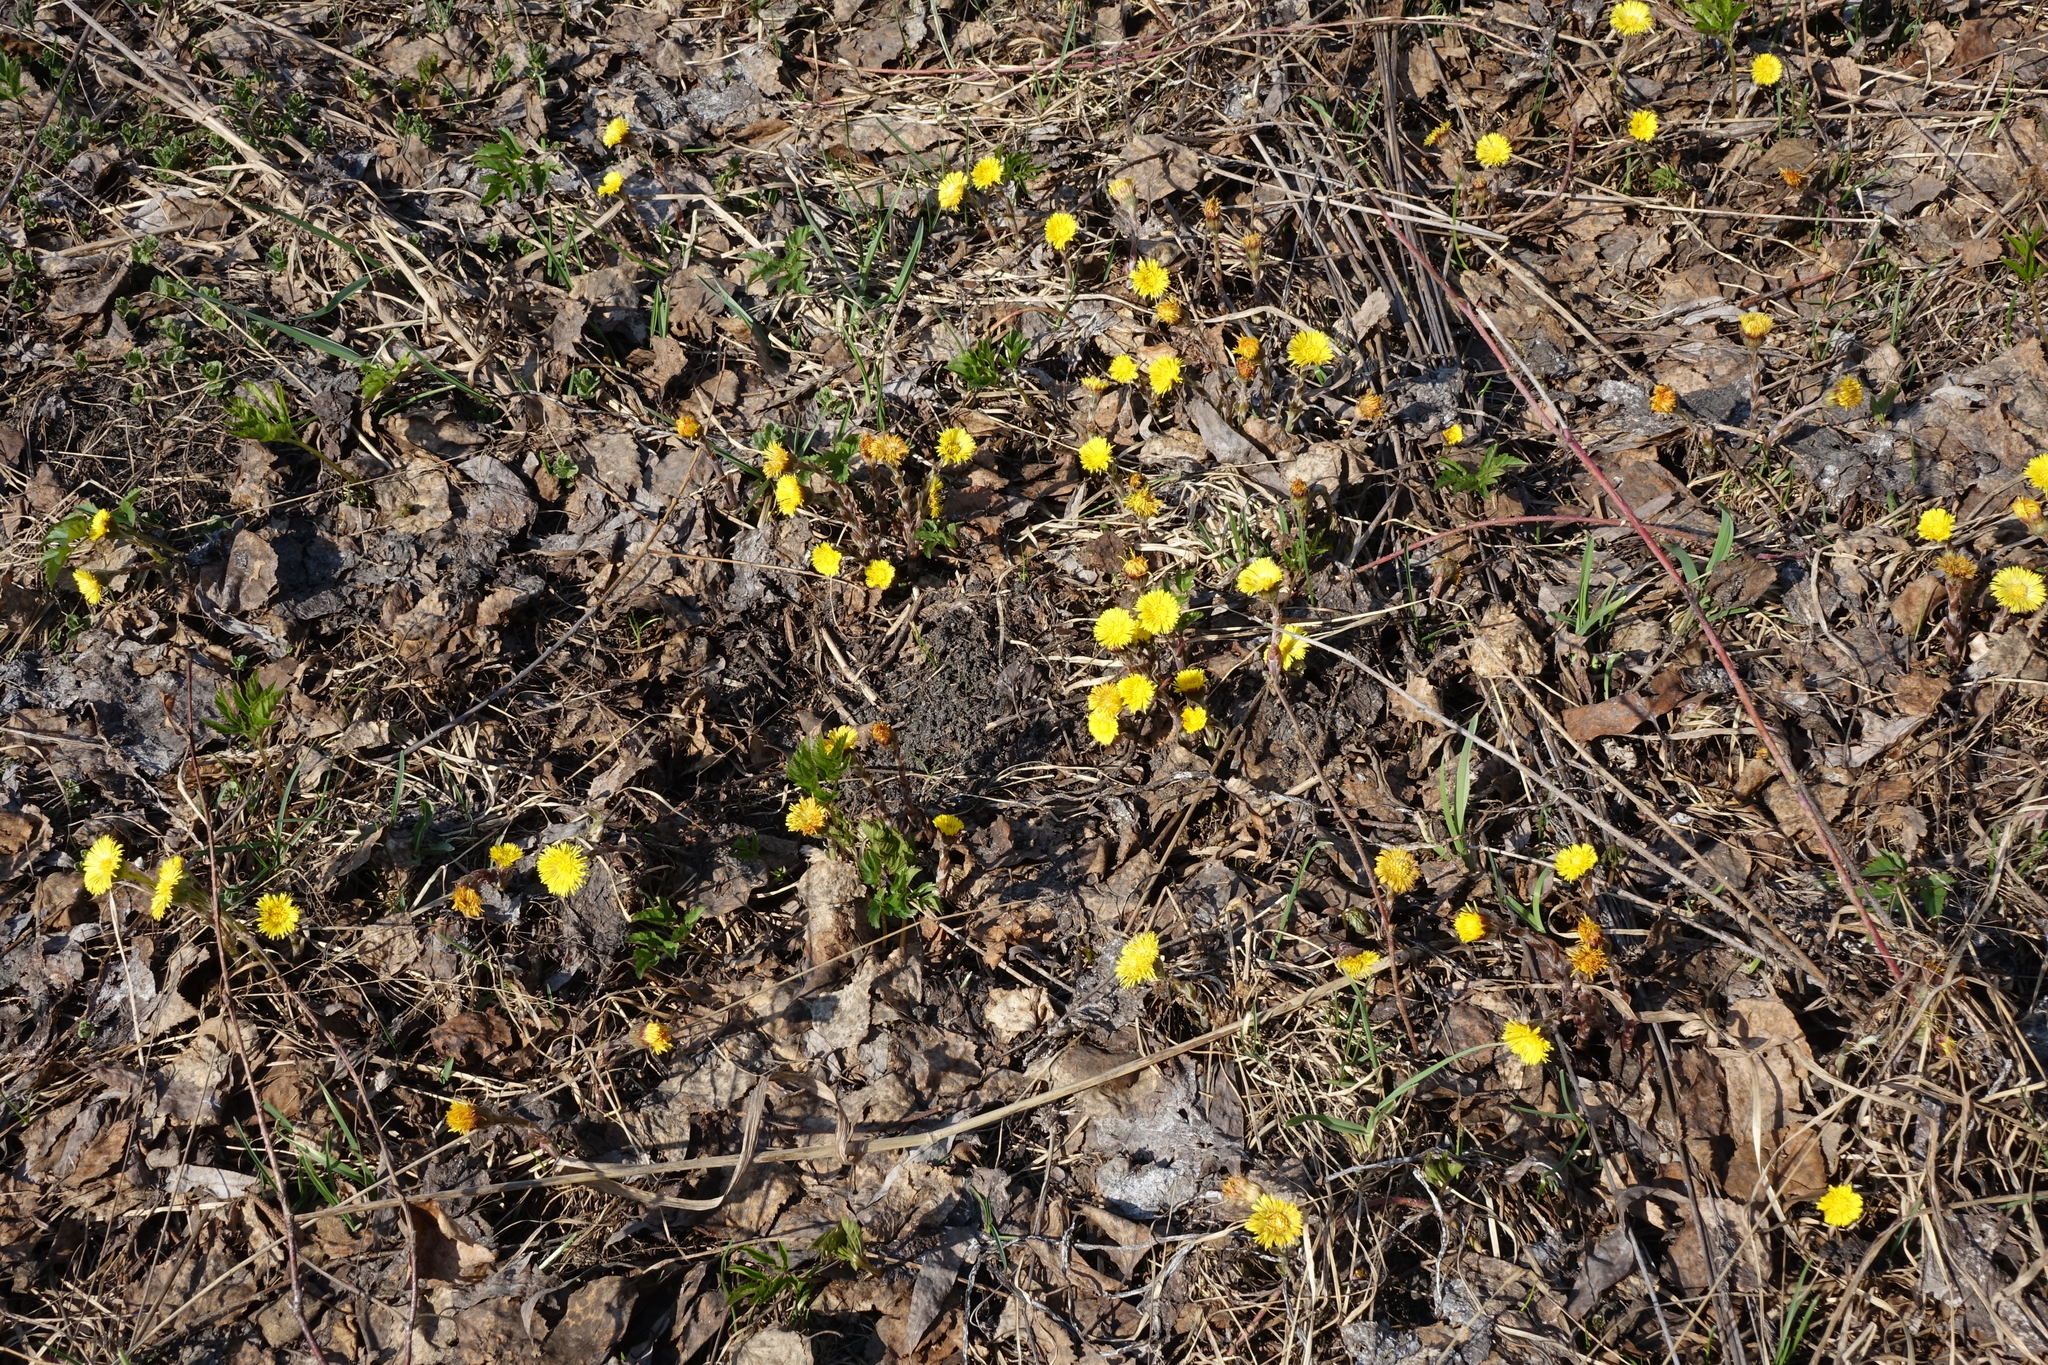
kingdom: Plantae
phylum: Tracheophyta
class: Magnoliopsida
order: Asterales
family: Asteraceae
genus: Tussilago
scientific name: Tussilago farfara
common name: Coltsfoot
